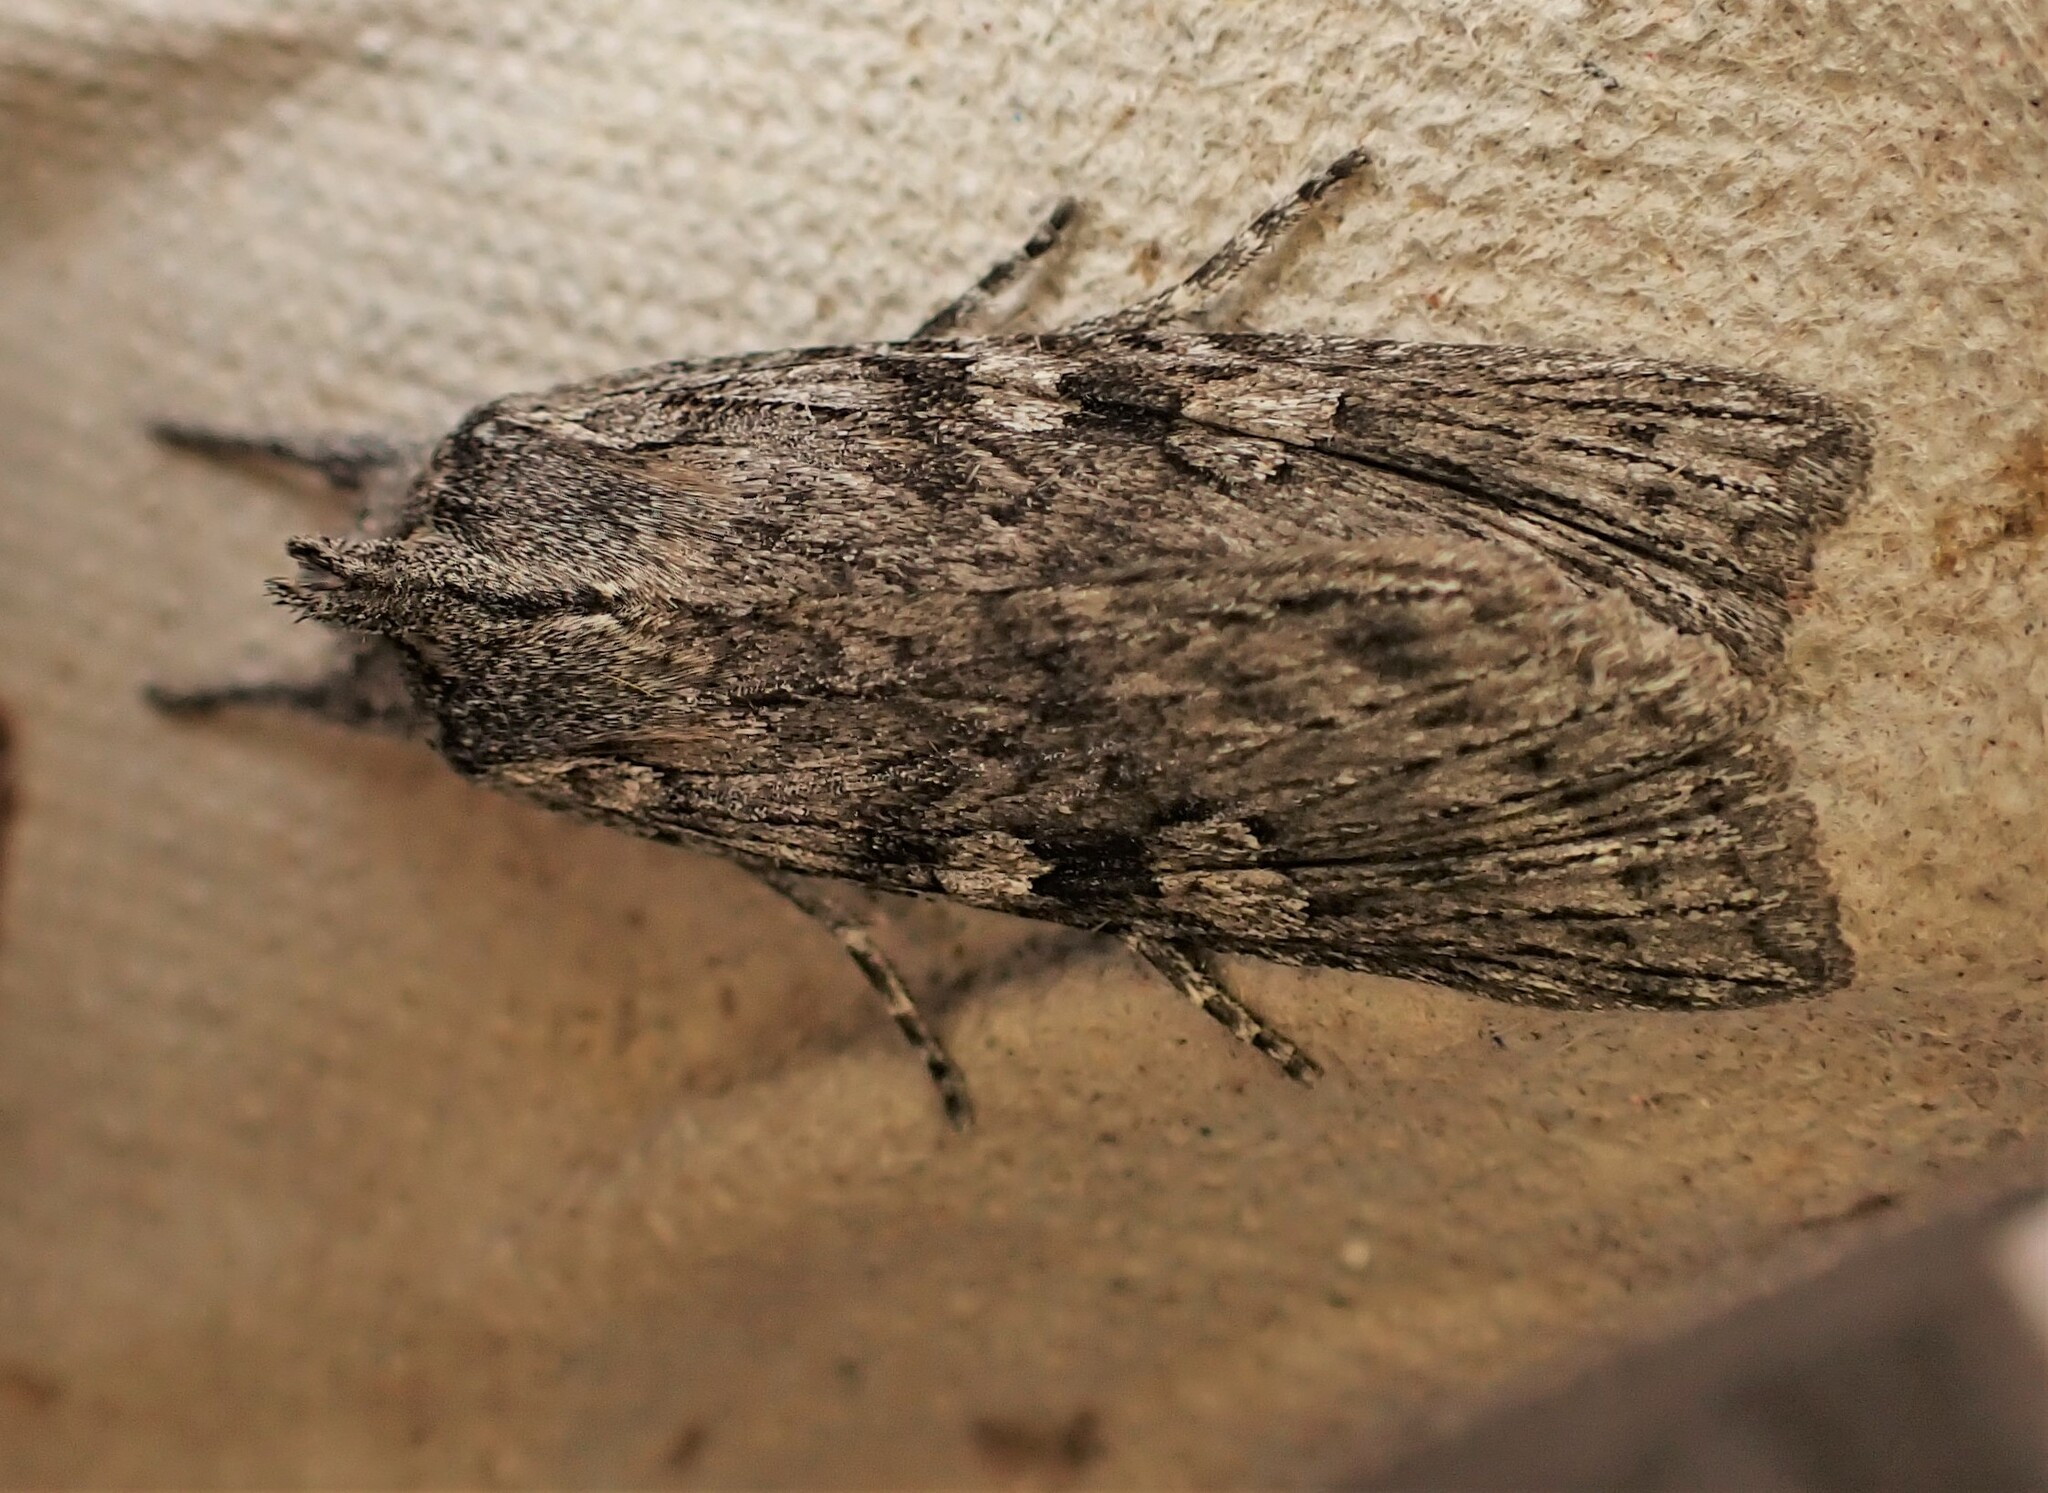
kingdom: Animalia
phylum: Arthropoda
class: Insecta
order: Lepidoptera
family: Noctuidae
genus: Physetica
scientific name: Physetica phricias
